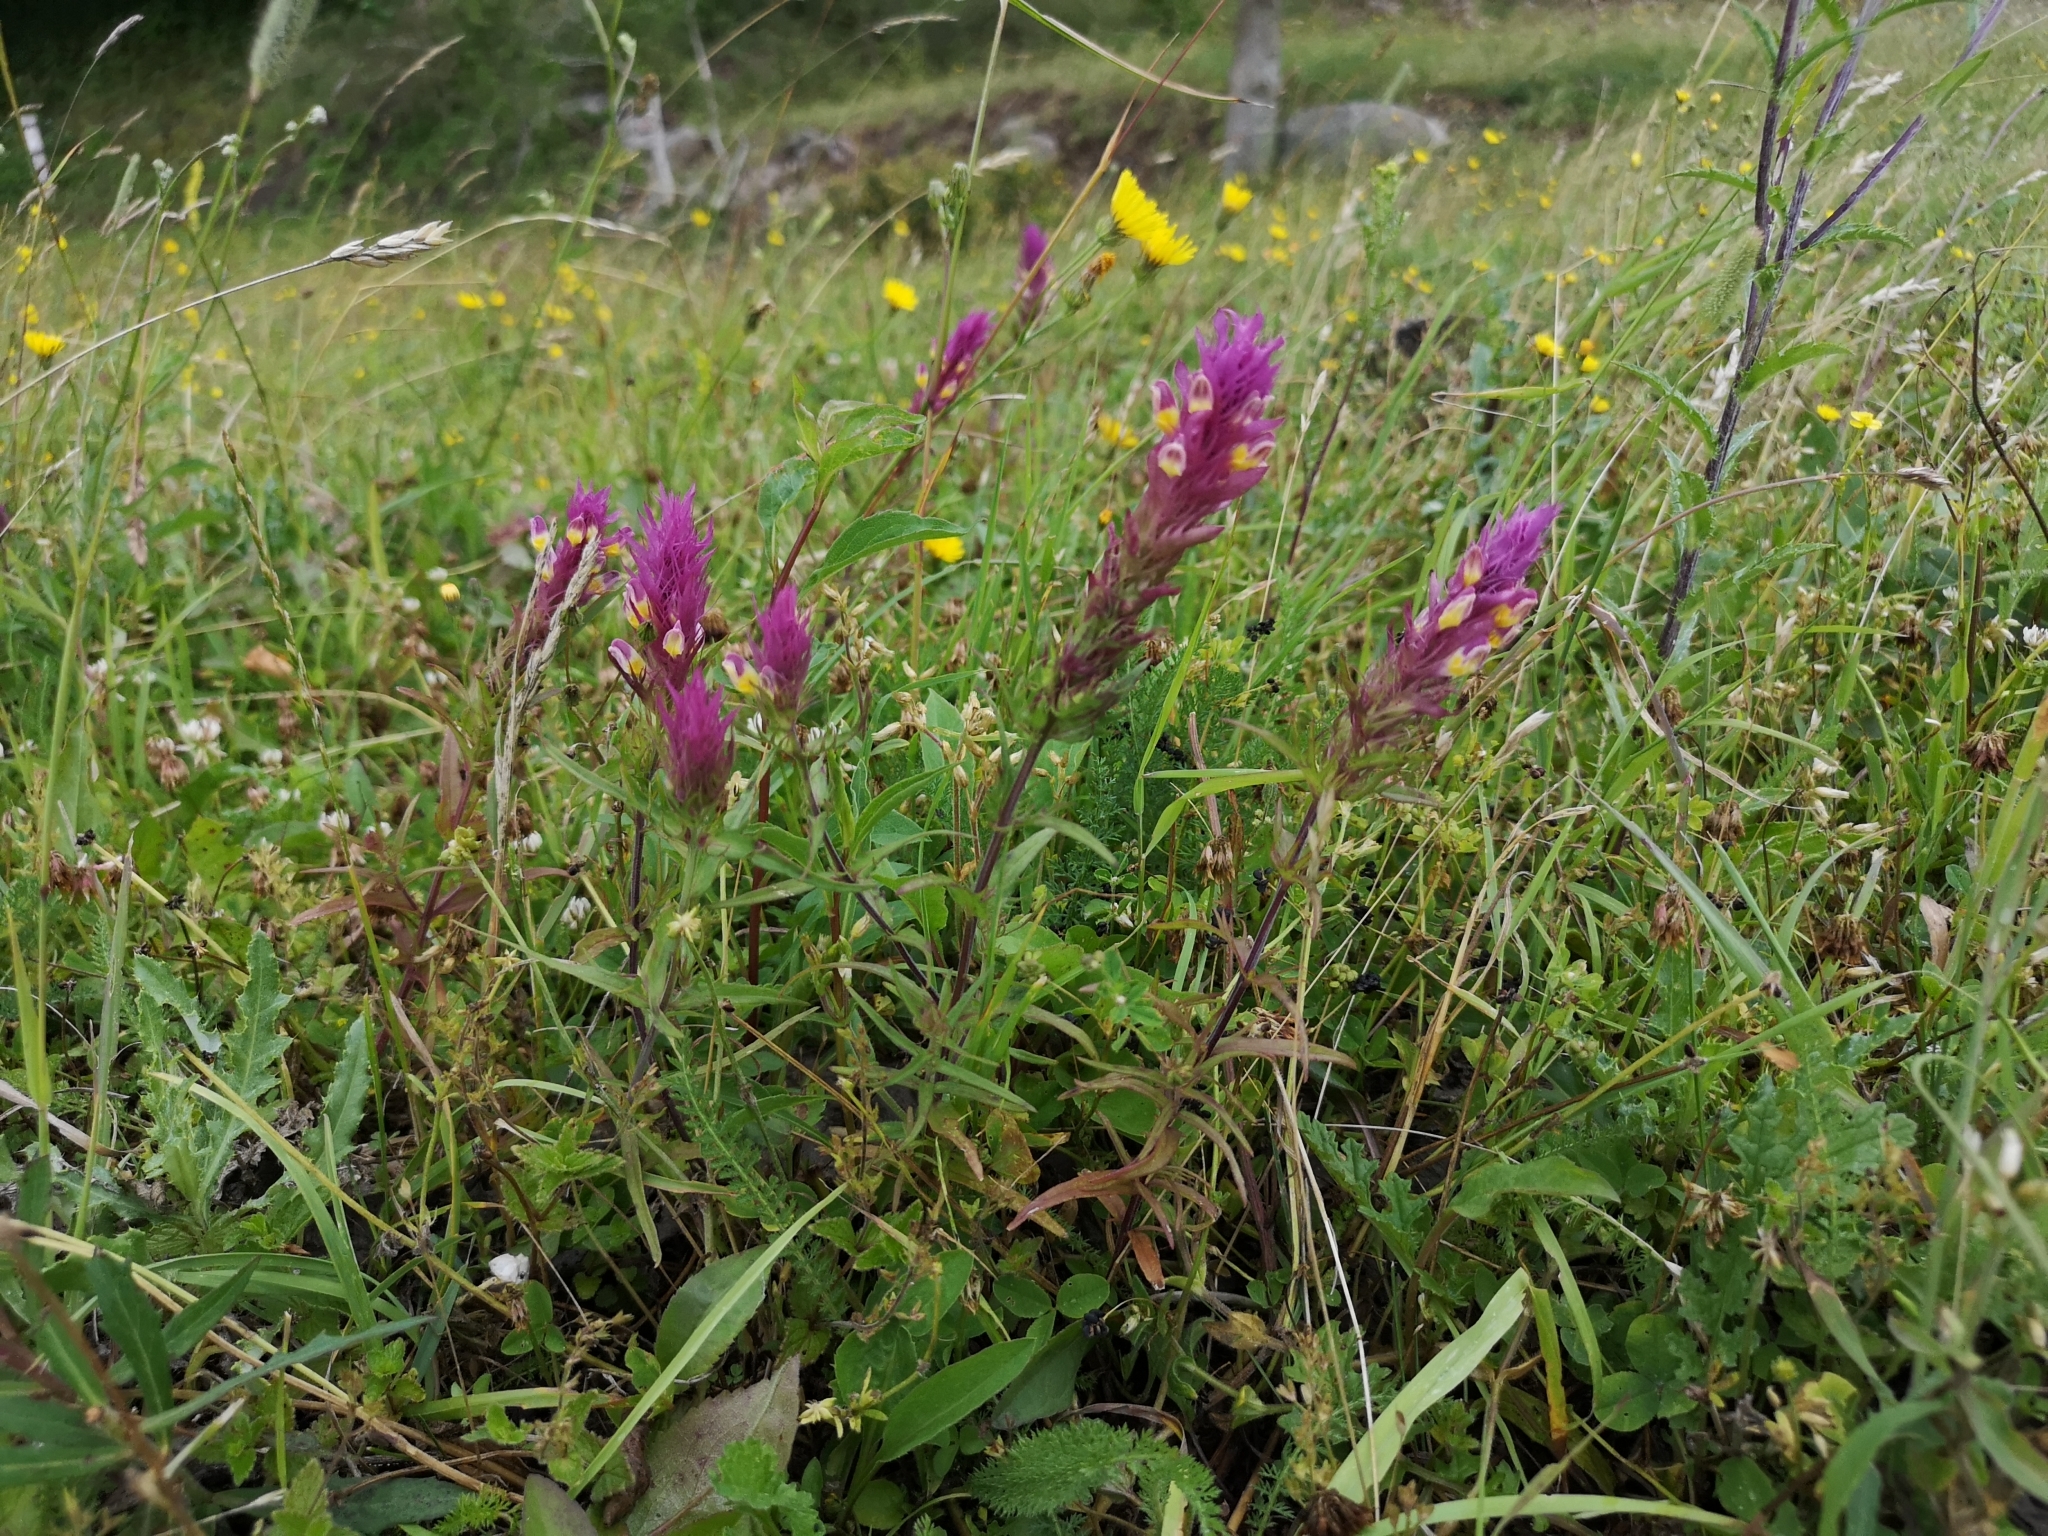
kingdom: Plantae
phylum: Tracheophyta
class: Magnoliopsida
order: Lamiales
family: Orobanchaceae
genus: Melampyrum
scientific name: Melampyrum arvense
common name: Field cow-wheat
